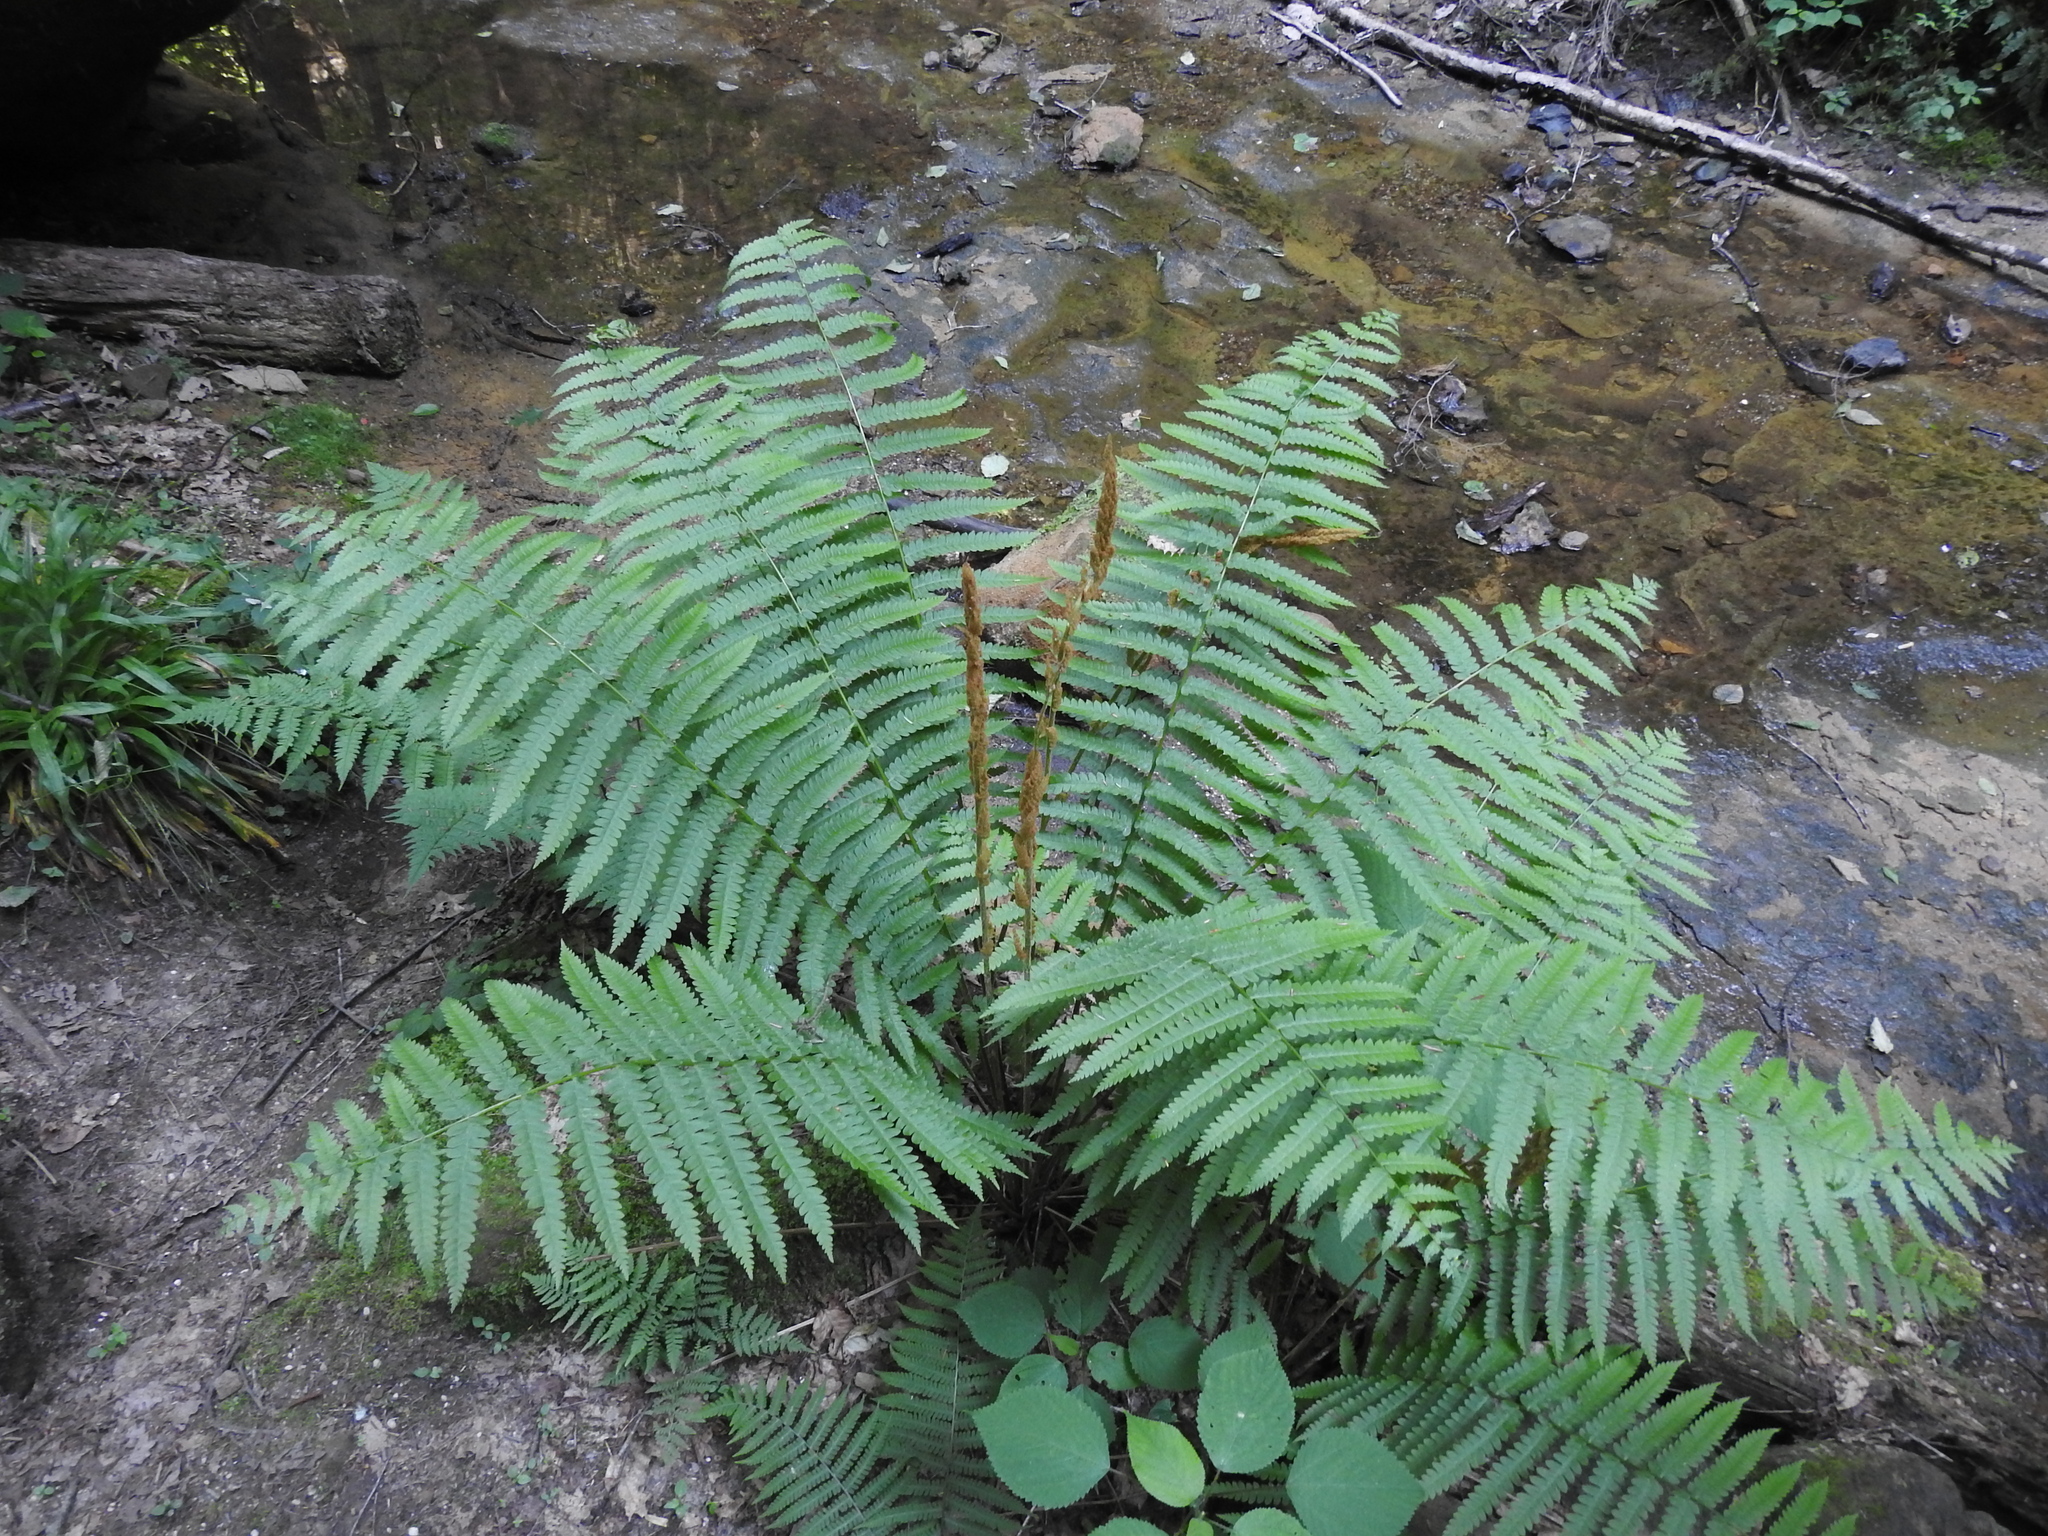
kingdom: Plantae
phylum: Tracheophyta
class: Polypodiopsida
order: Osmundales
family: Osmundaceae
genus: Osmundastrum
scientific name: Osmundastrum cinnamomeum
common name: Cinnamon fern
